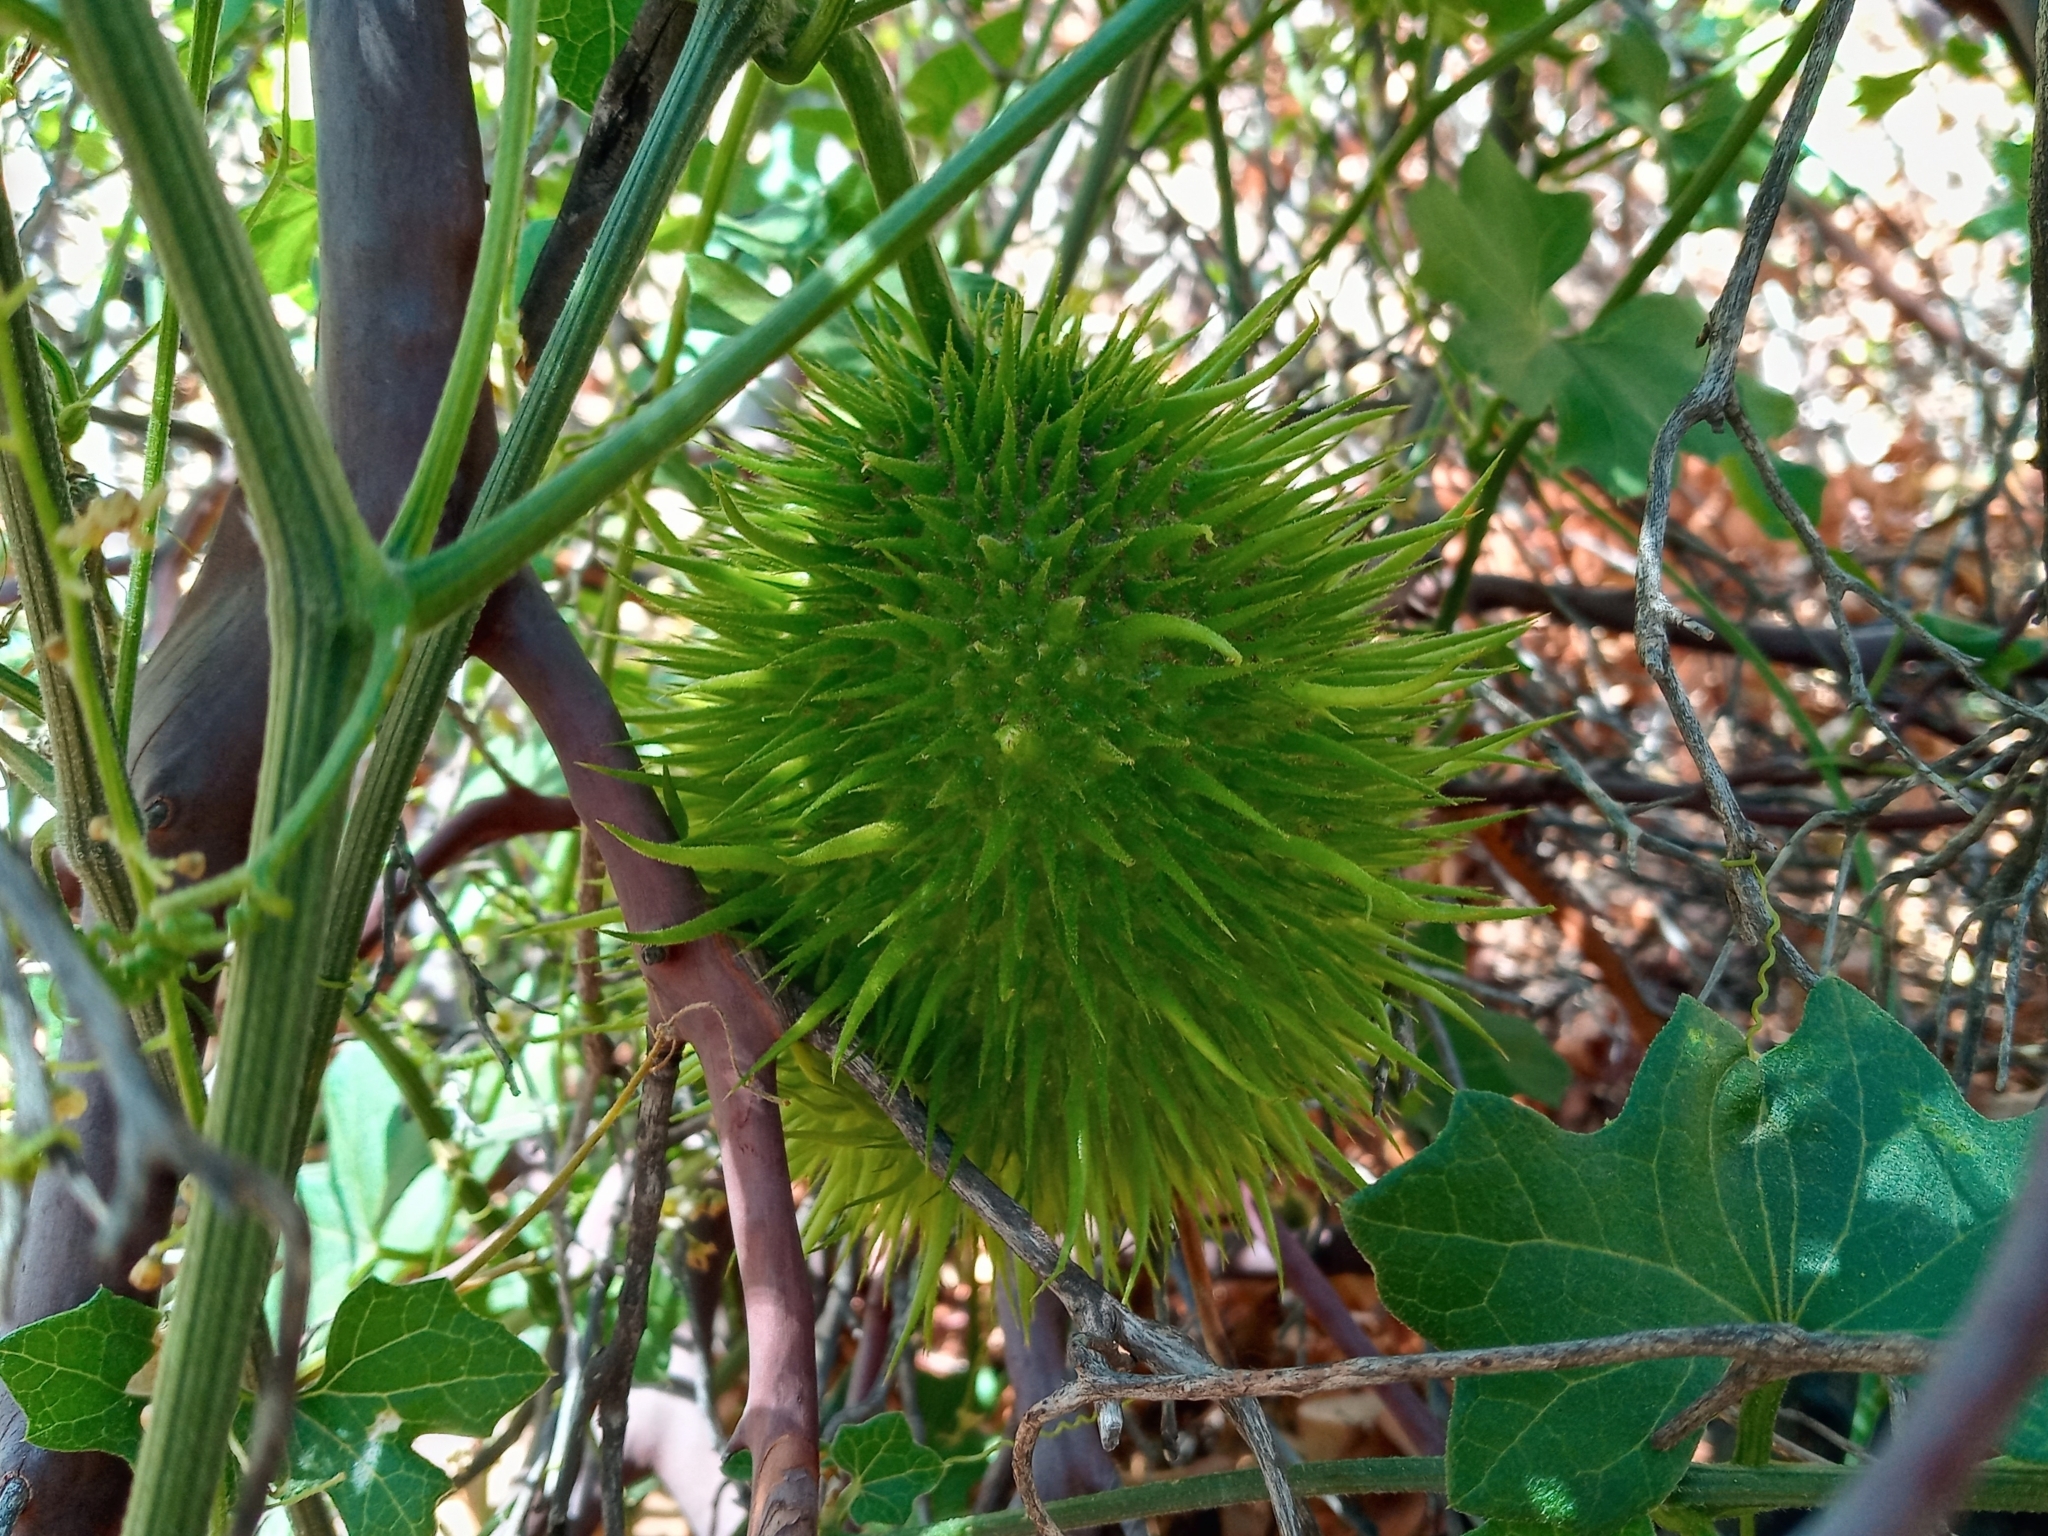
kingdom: Plantae
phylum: Tracheophyta
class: Magnoliopsida
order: Cucurbitales
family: Cucurbitaceae
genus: Marah
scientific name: Marah macrocarpa
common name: Cucamonga manroot
